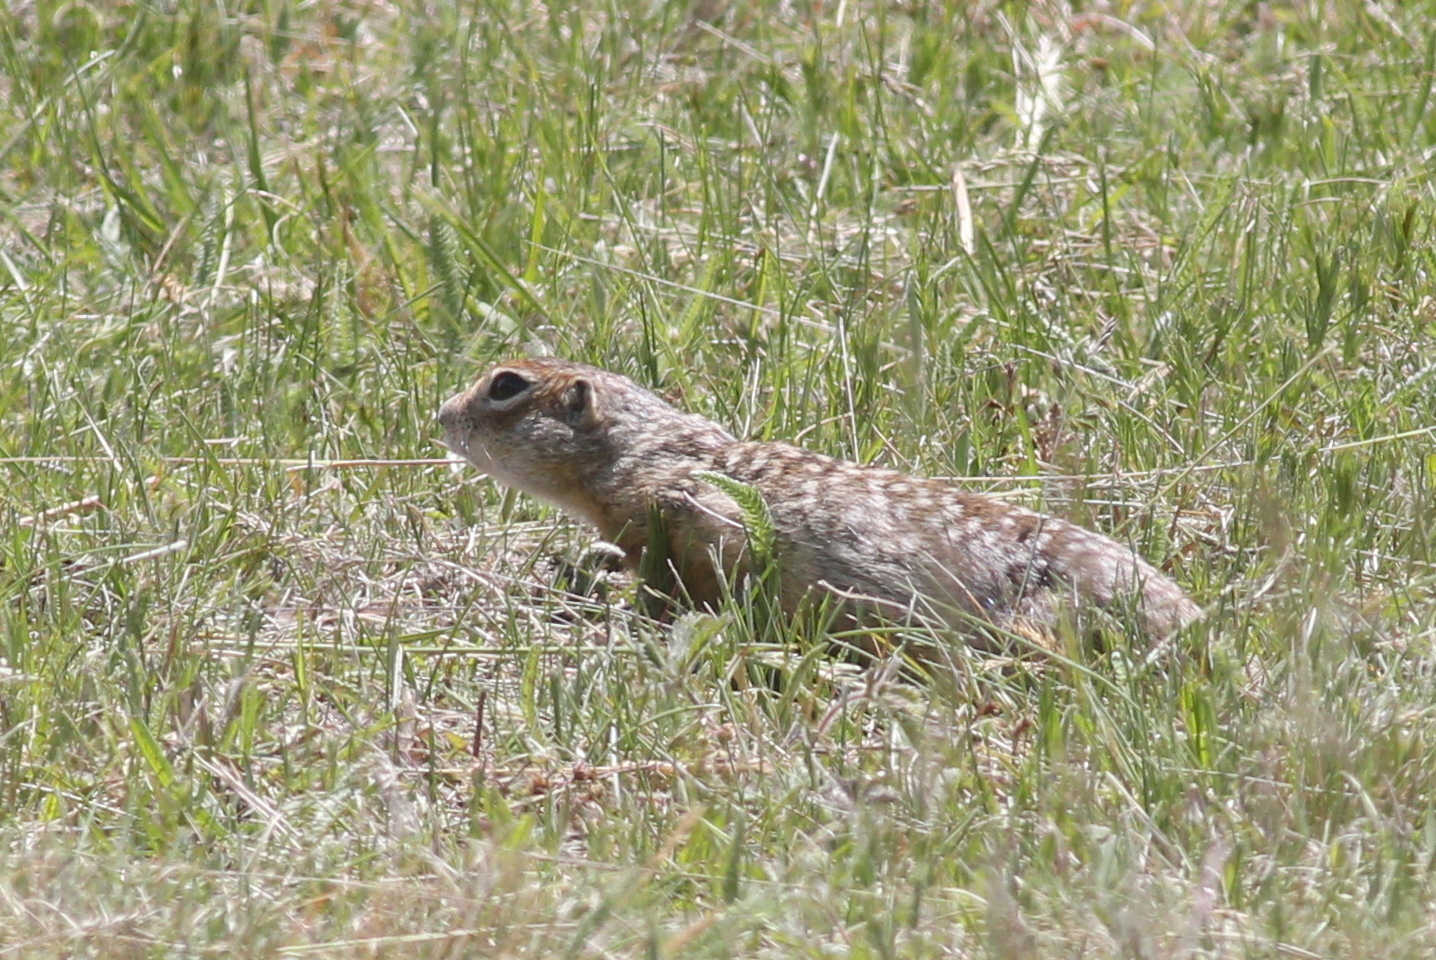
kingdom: Animalia
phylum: Chordata
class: Mammalia
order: Rodentia
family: Sciuridae
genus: Spermophilus
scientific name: Spermophilus suslicus
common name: Speckled ground squirrel
